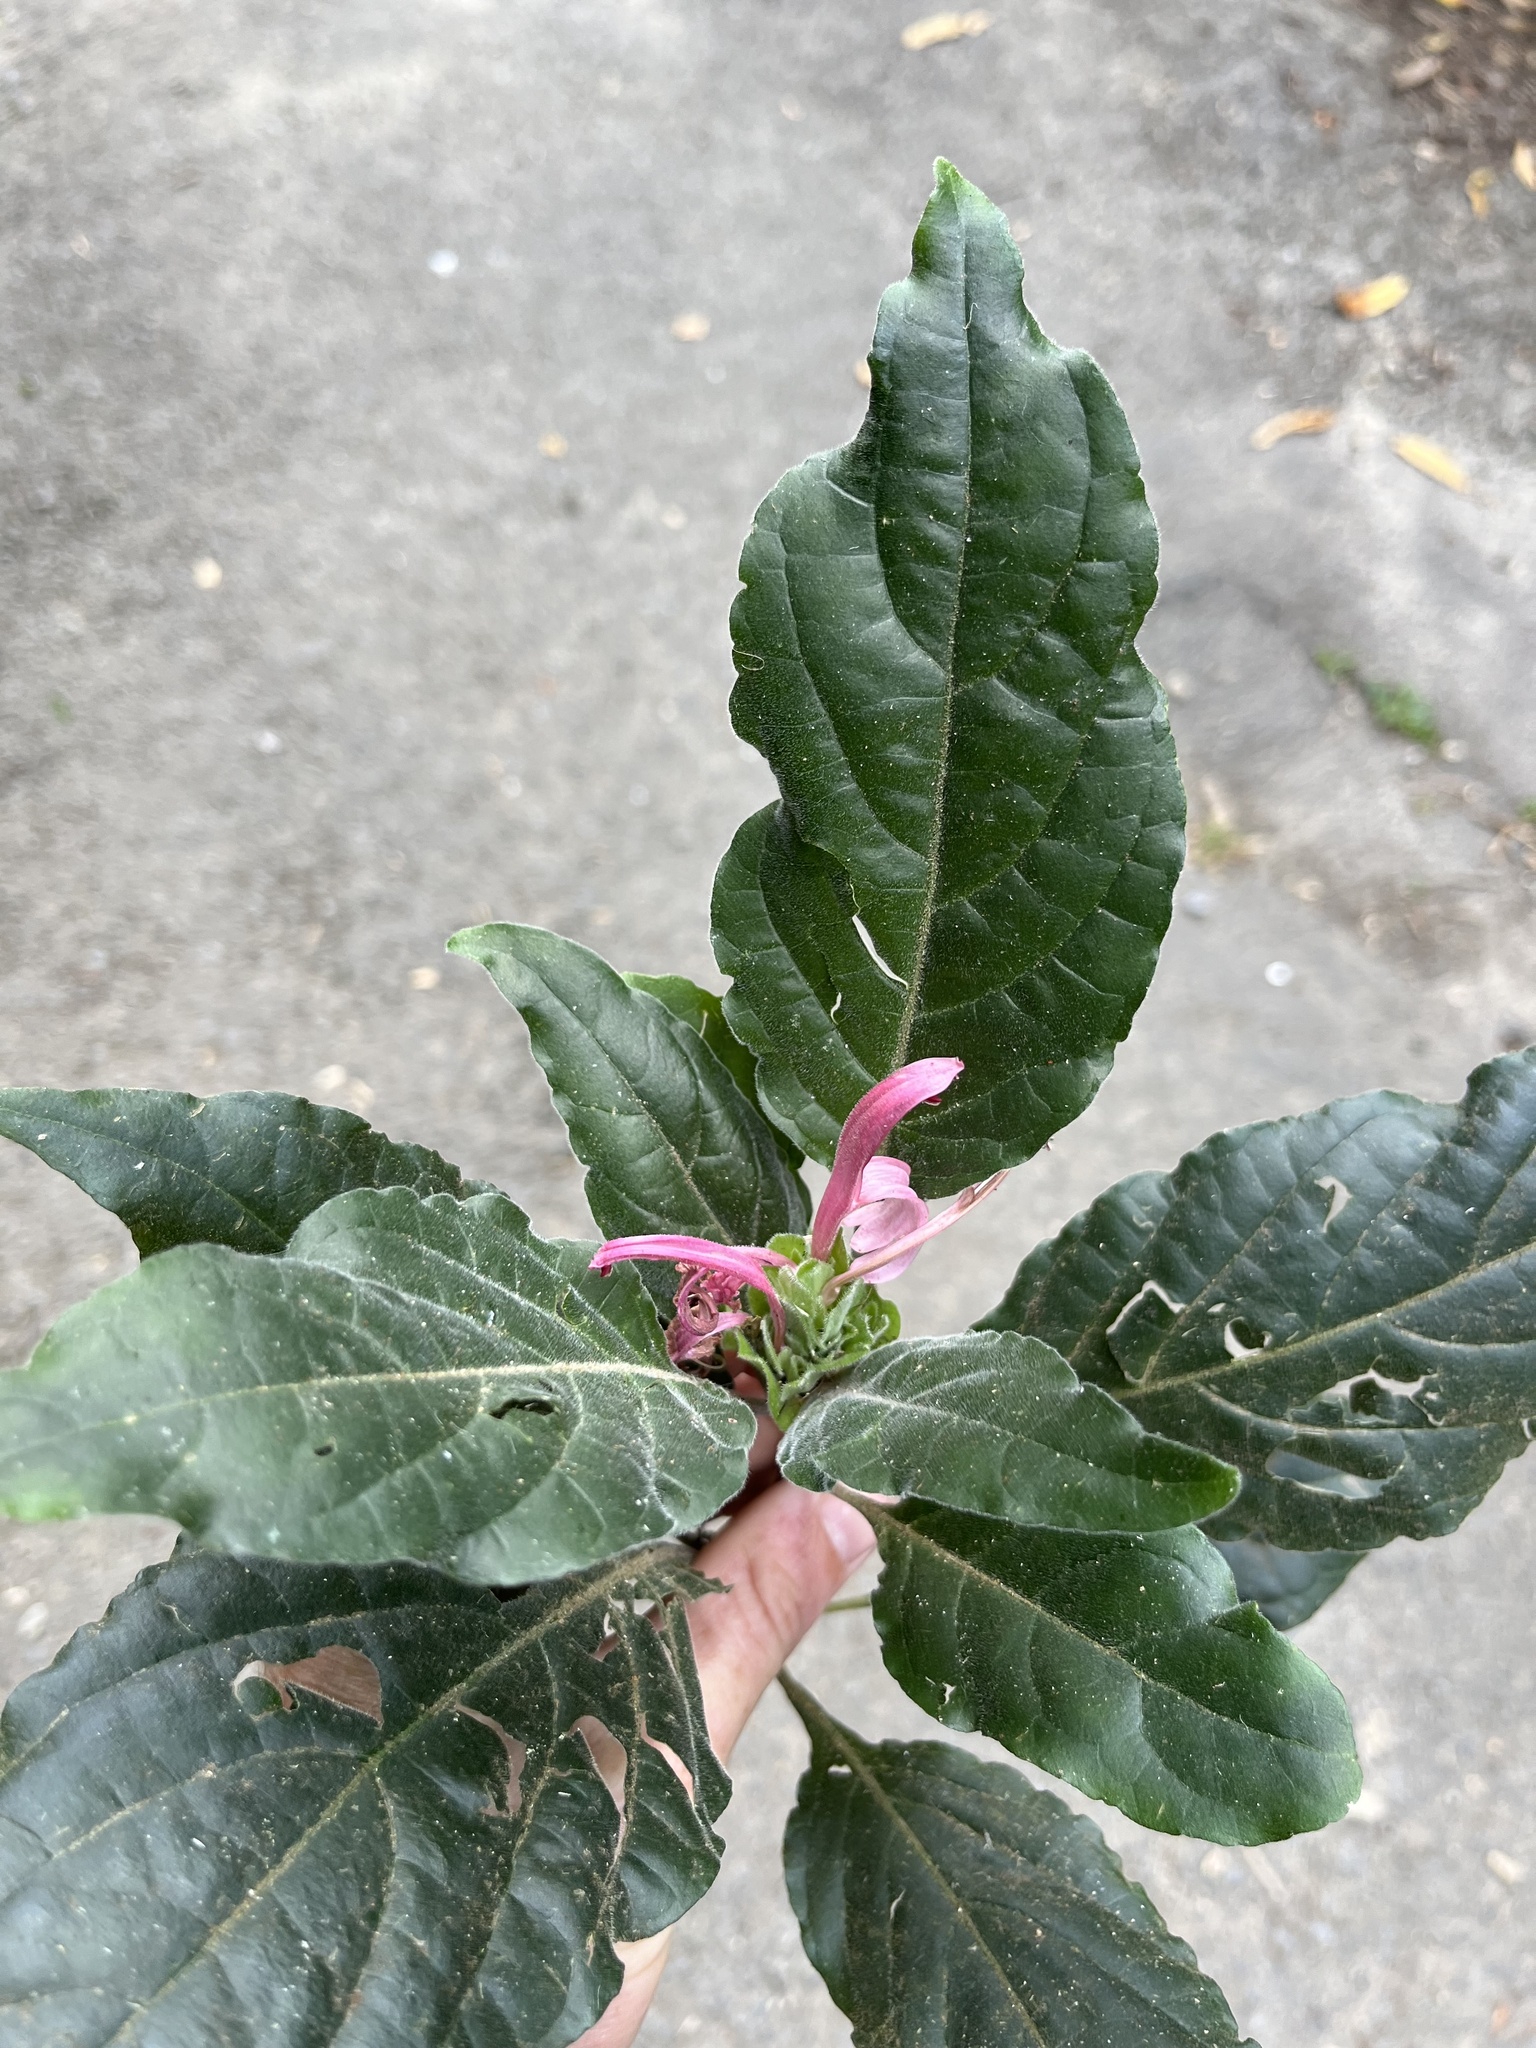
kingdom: Plantae
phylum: Tracheophyta
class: Magnoliopsida
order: Lamiales
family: Acanthaceae
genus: Justicia
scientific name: Justicia carnea
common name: Brazilian-plume
